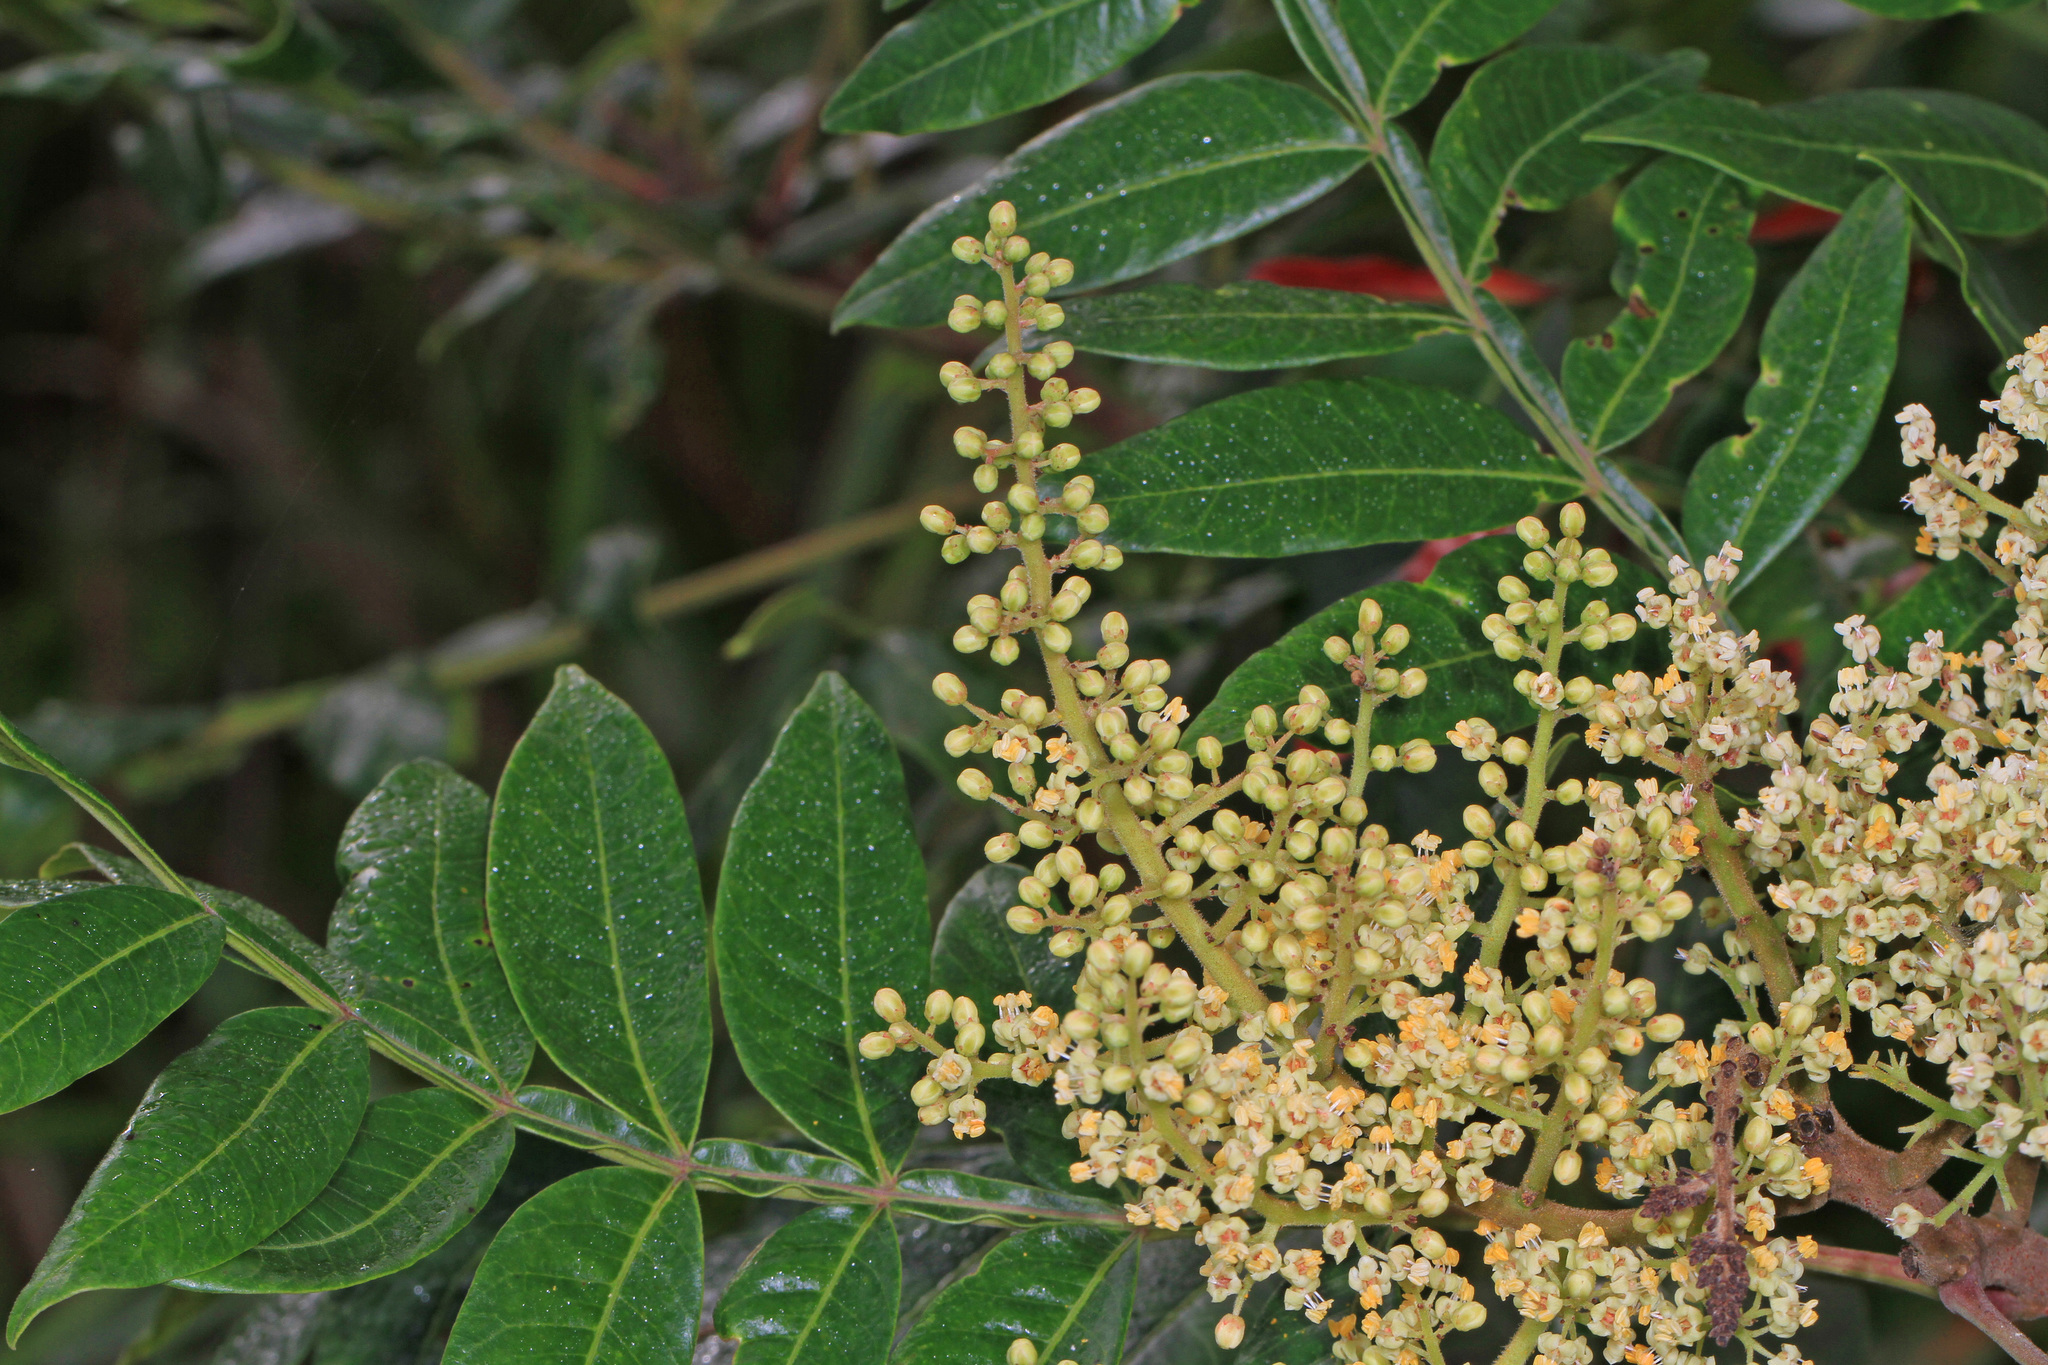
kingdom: Plantae
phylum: Tracheophyta
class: Magnoliopsida
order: Sapindales
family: Anacardiaceae
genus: Rhus
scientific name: Rhus copallina
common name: Shining sumac
